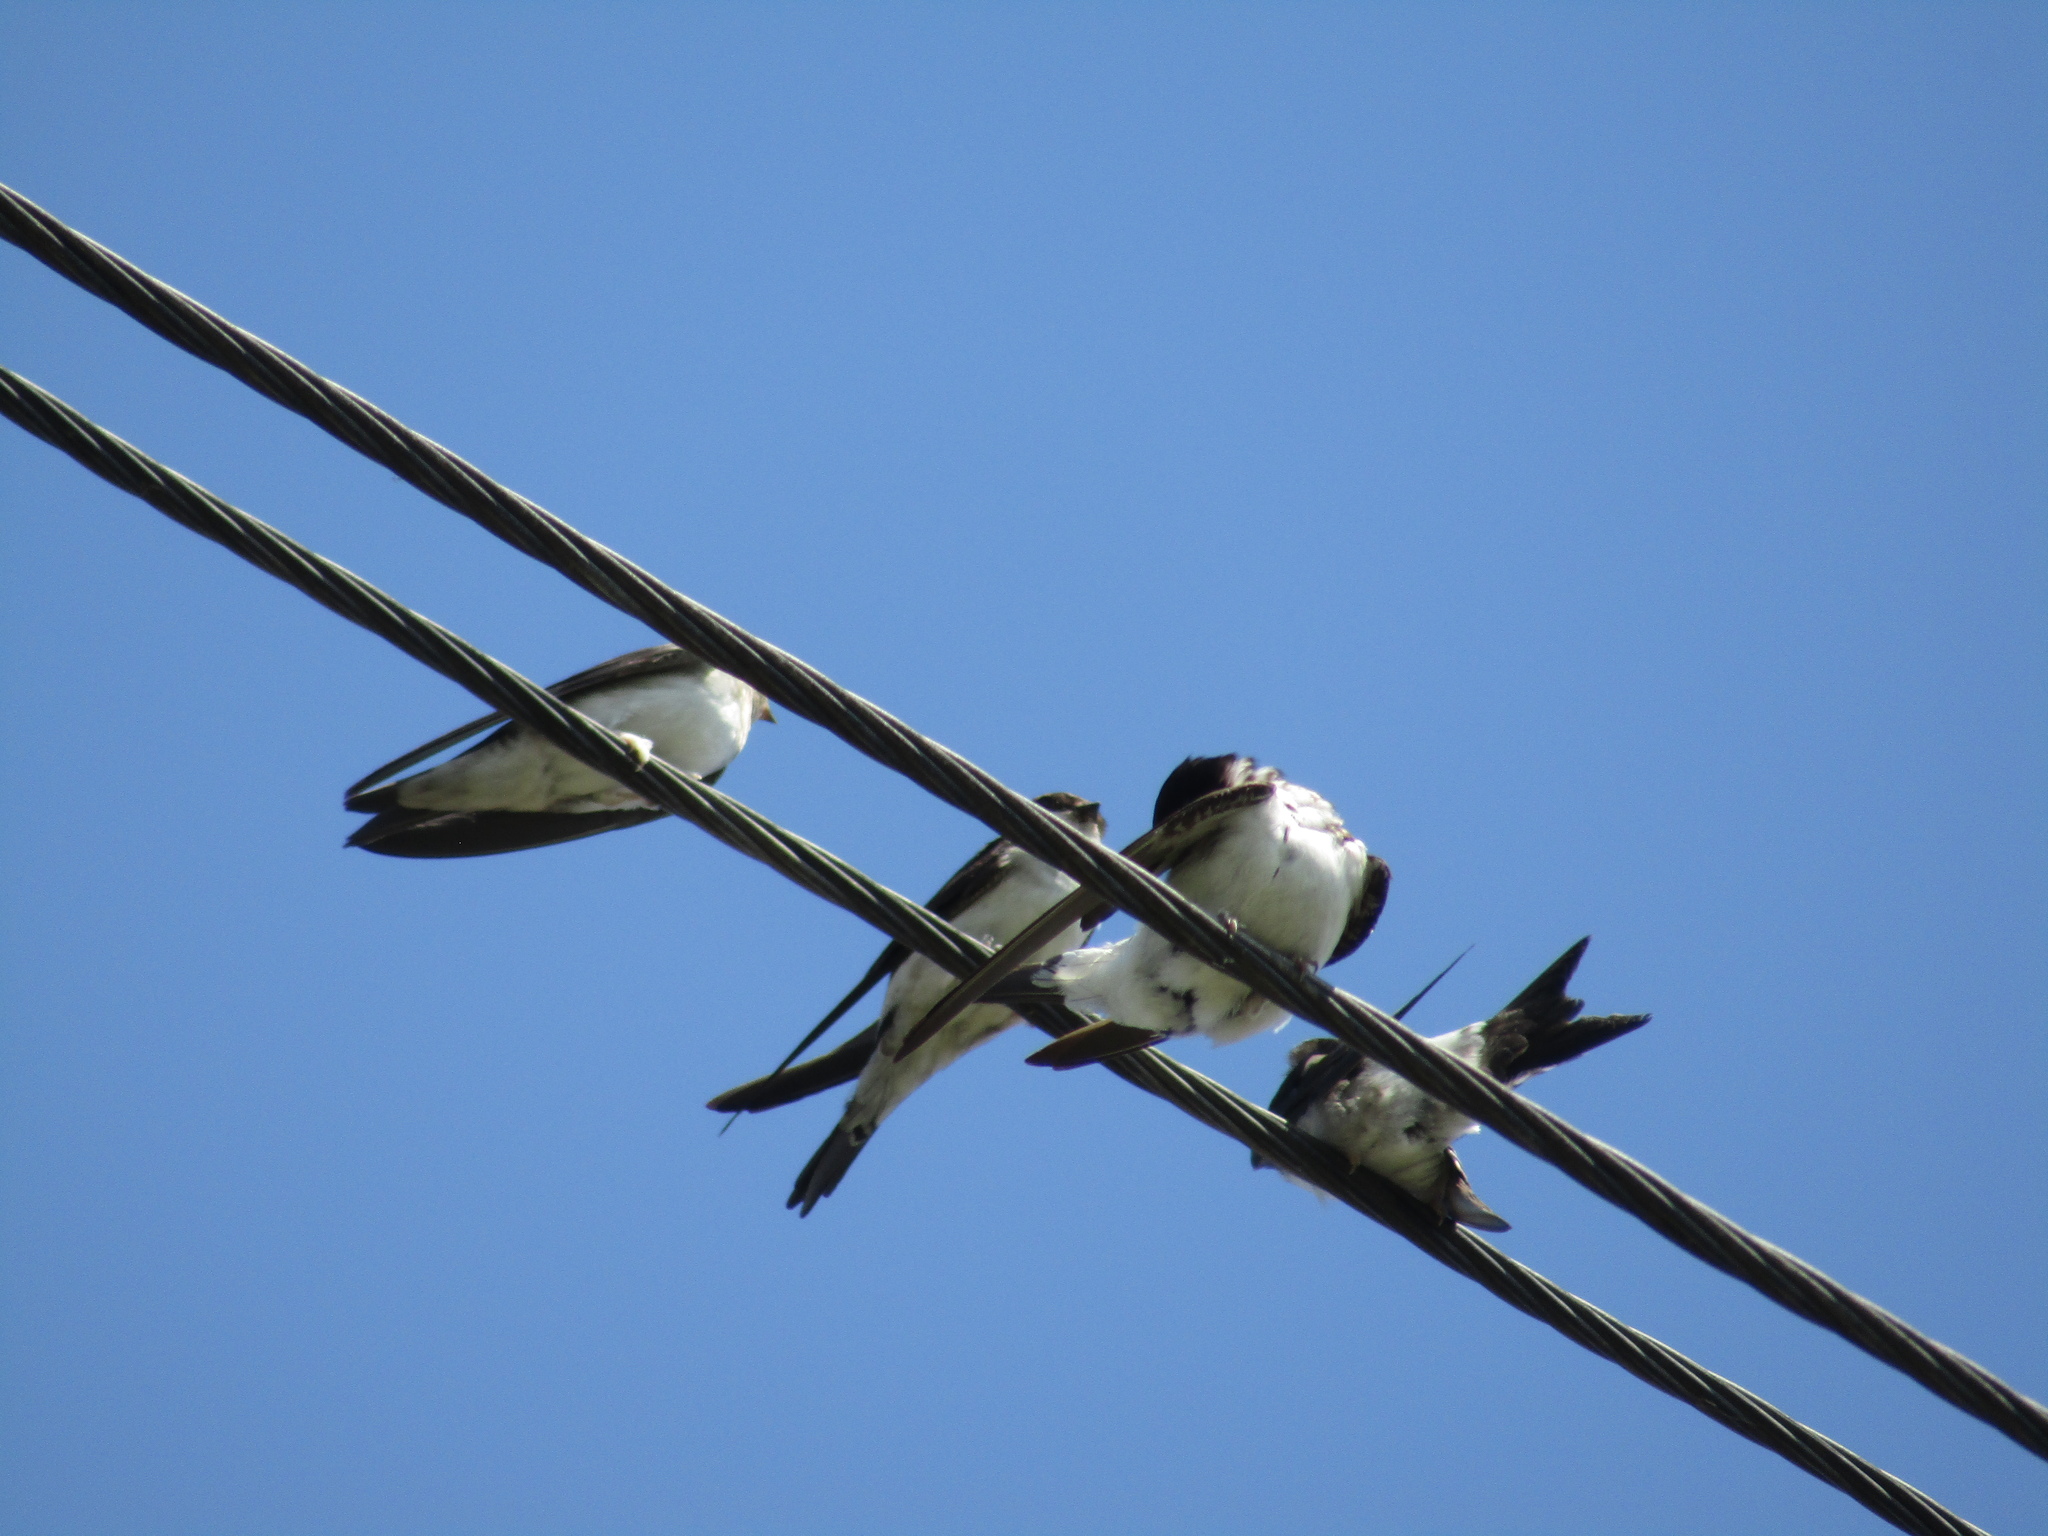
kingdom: Animalia
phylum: Chordata
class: Aves
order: Passeriformes
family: Hirundinidae
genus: Delichon
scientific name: Delichon urbicum
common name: Common house martin
